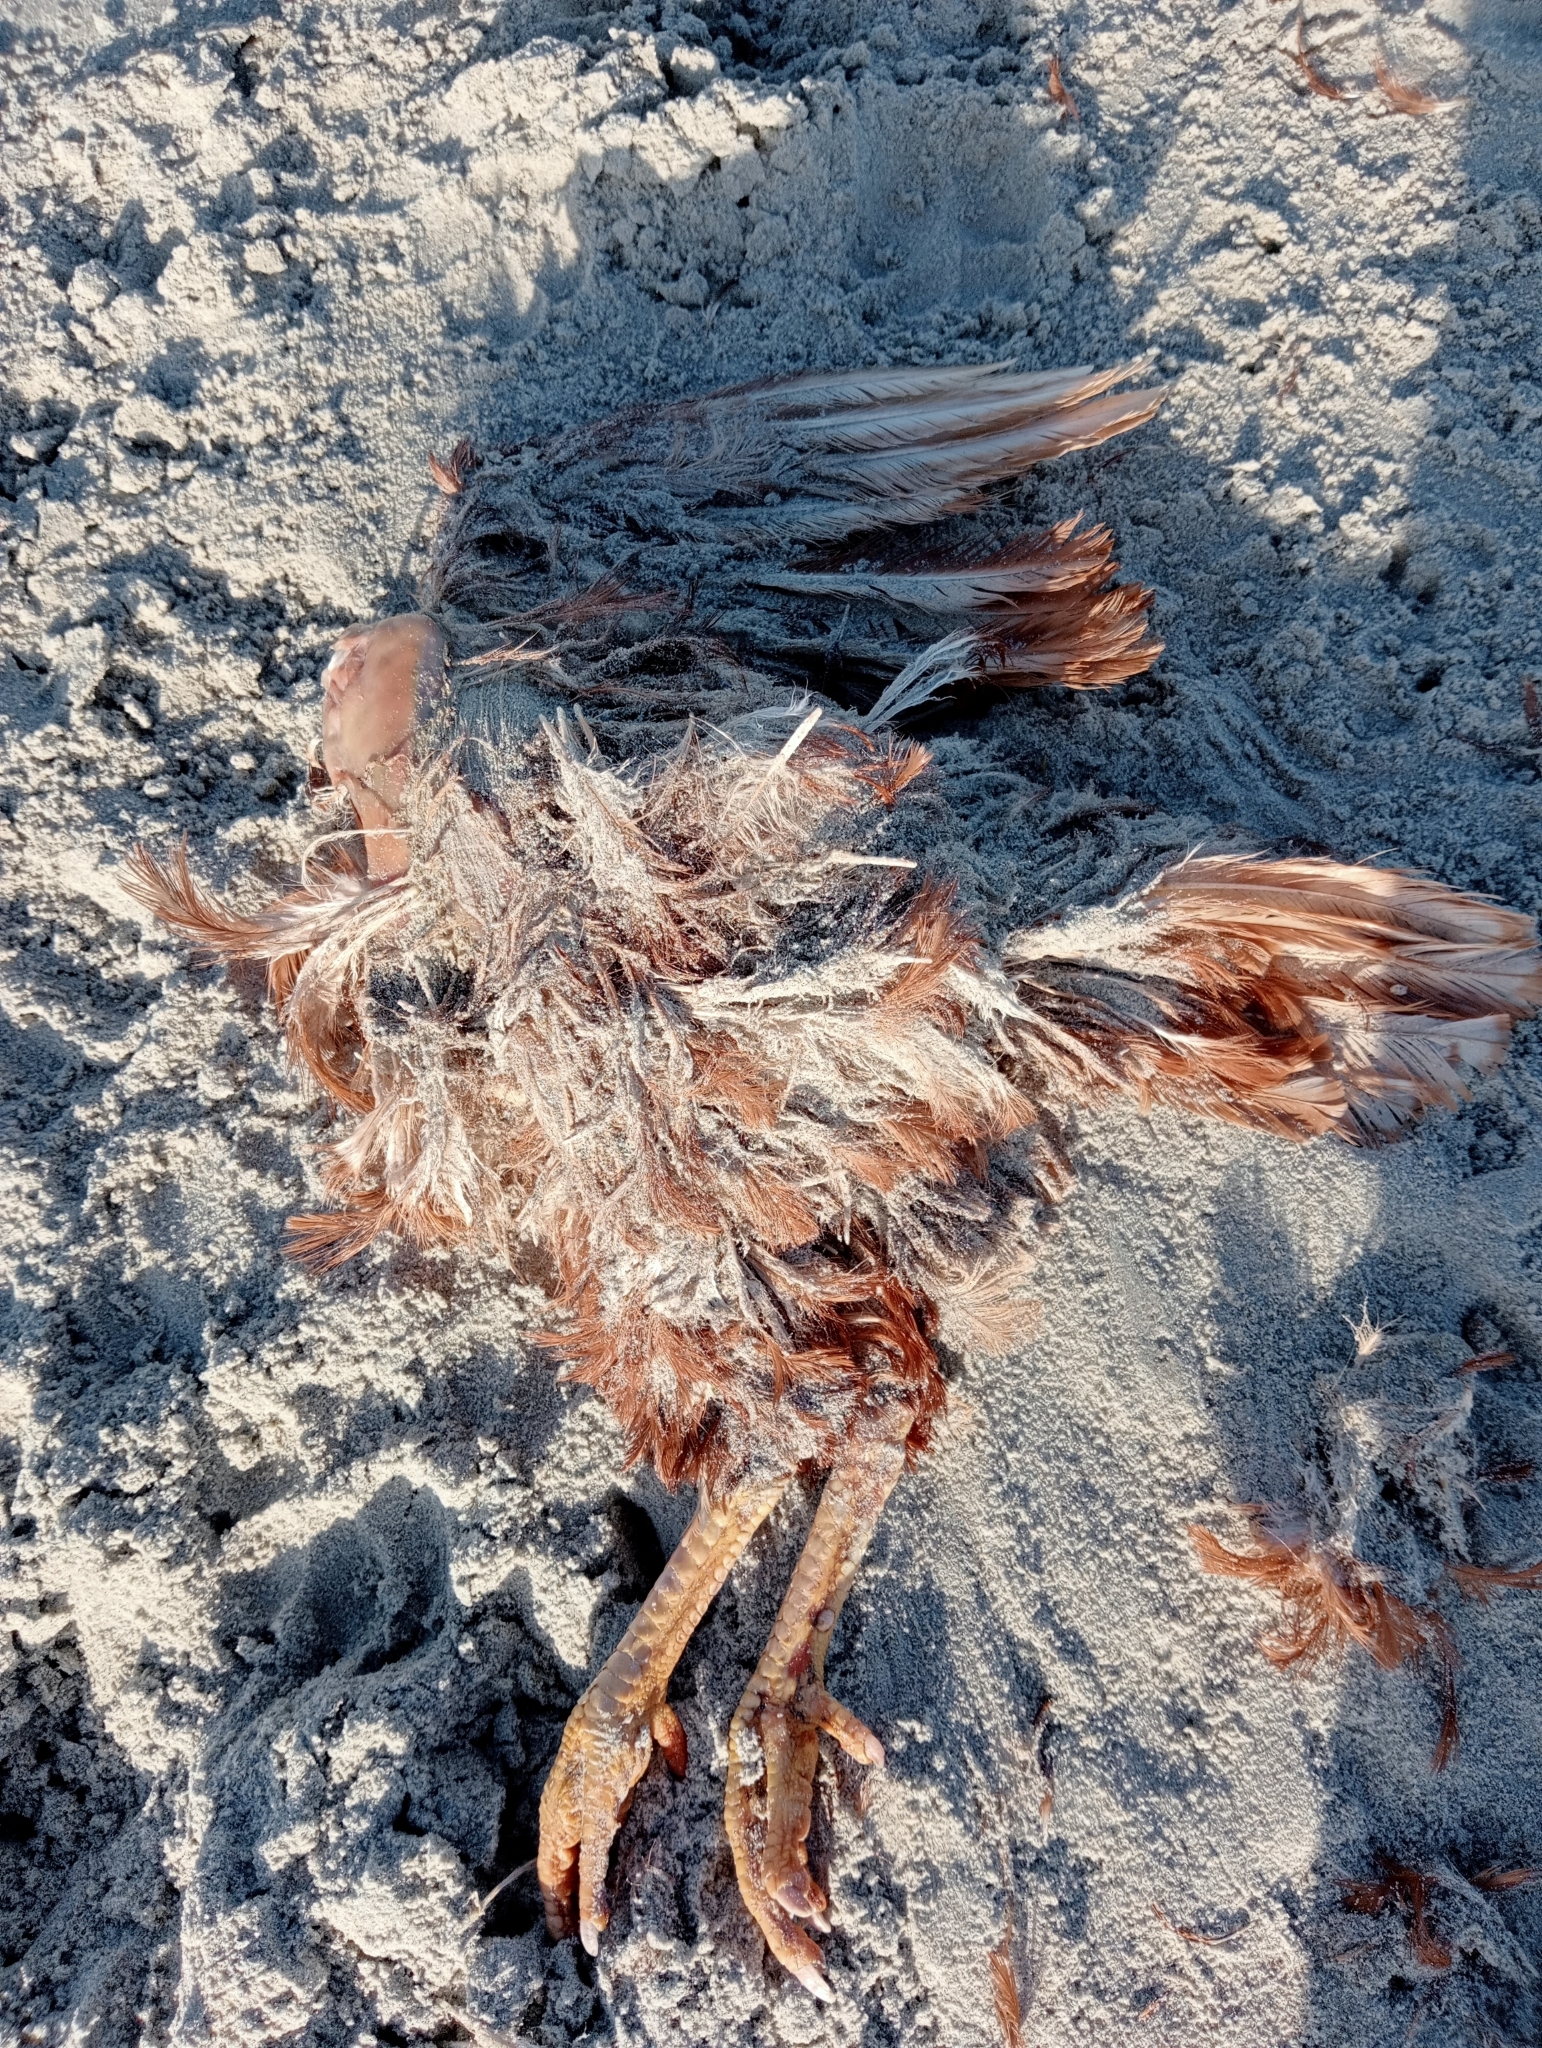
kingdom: Animalia
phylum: Chordata
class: Aves
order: Galliformes
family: Phasianidae
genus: Gallus
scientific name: Gallus gallus
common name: Red junglefowl
